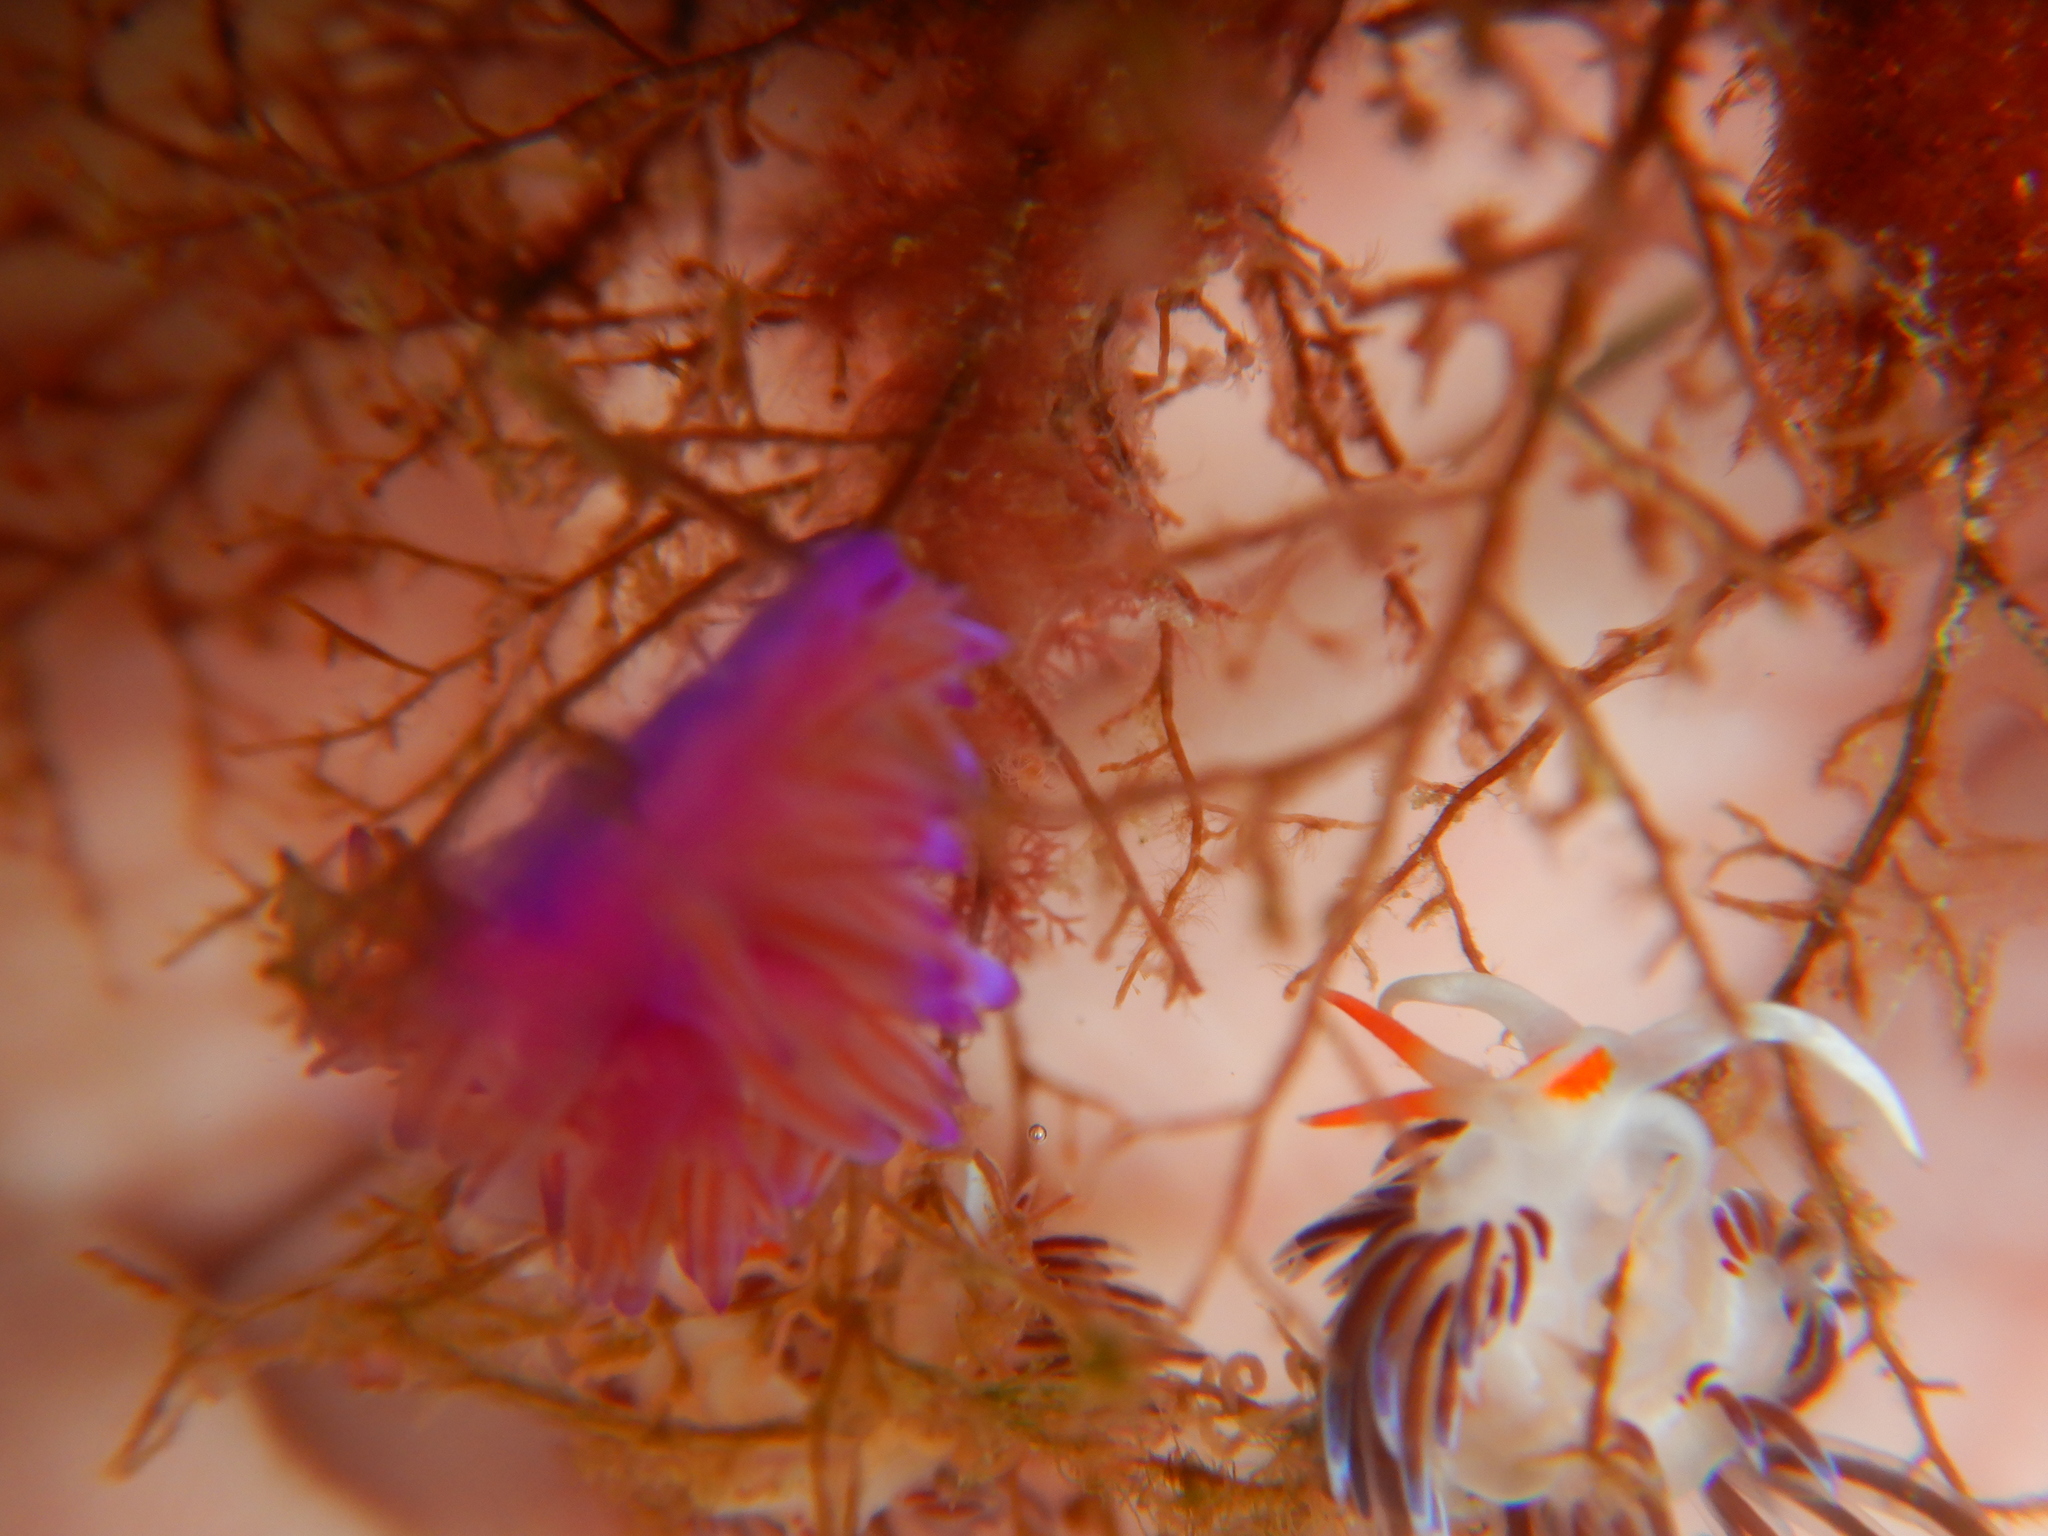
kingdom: Animalia
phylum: Mollusca
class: Gastropoda
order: Nudibranchia
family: Flabellinidae
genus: Flabellina
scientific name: Flabellina affinis
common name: Mediterranean violet aeolid
